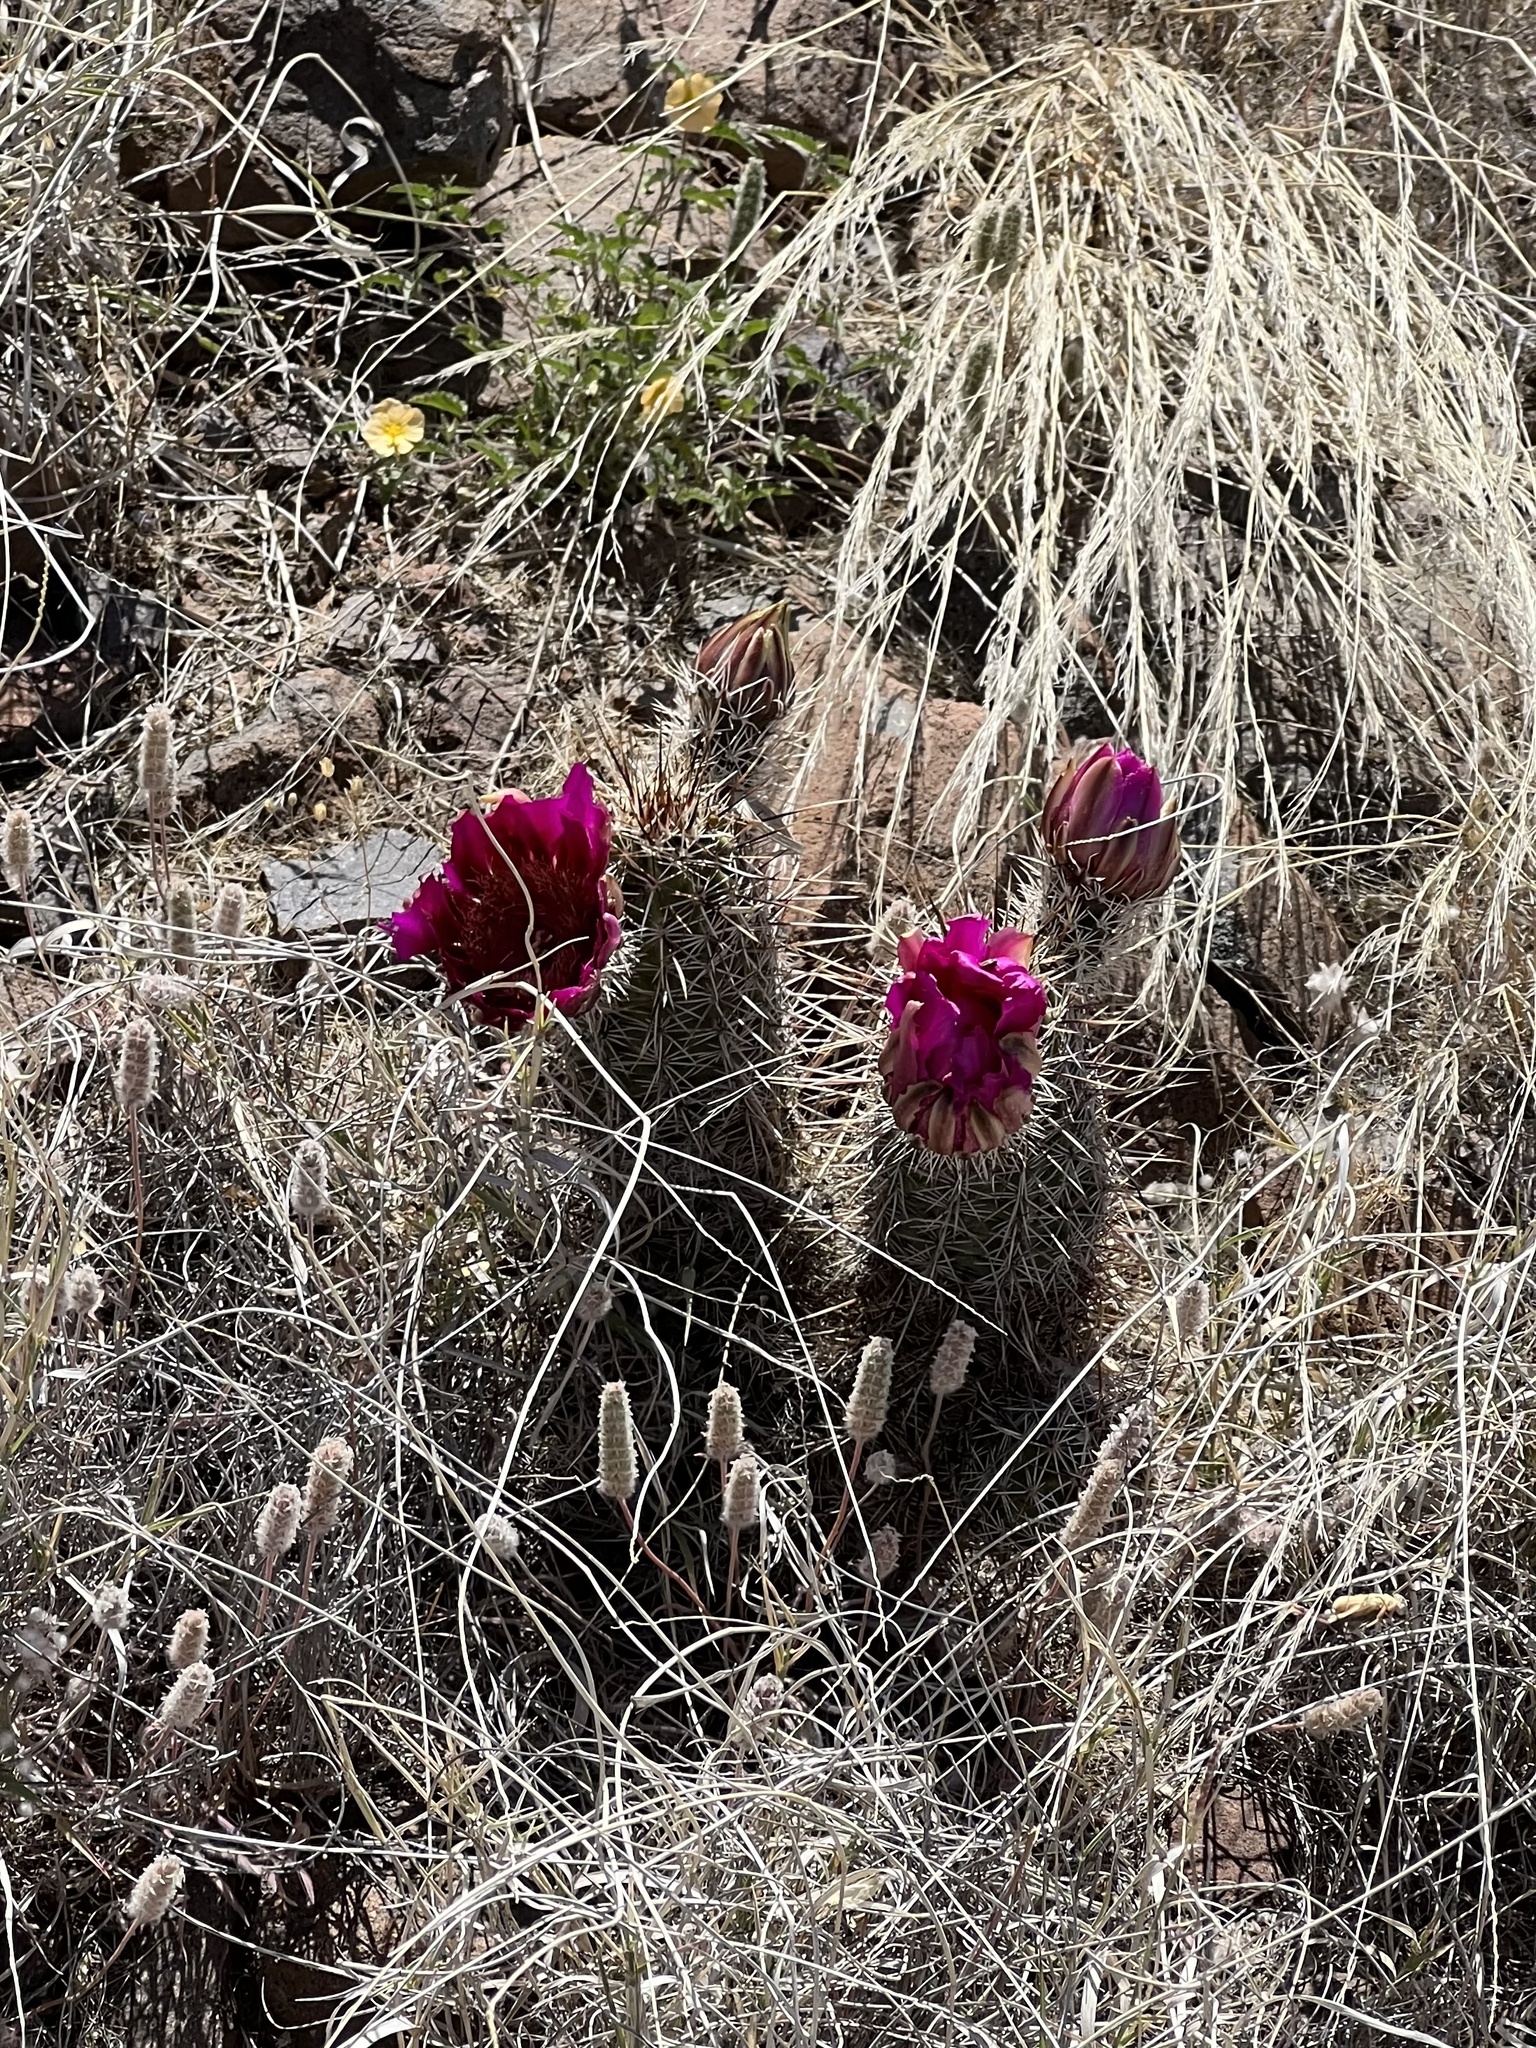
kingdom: Plantae
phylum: Tracheophyta
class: Magnoliopsida
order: Caryophyllales
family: Cactaceae
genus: Echinocereus
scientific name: Echinocereus fendleri
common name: Fendler's hedgehog cactus
